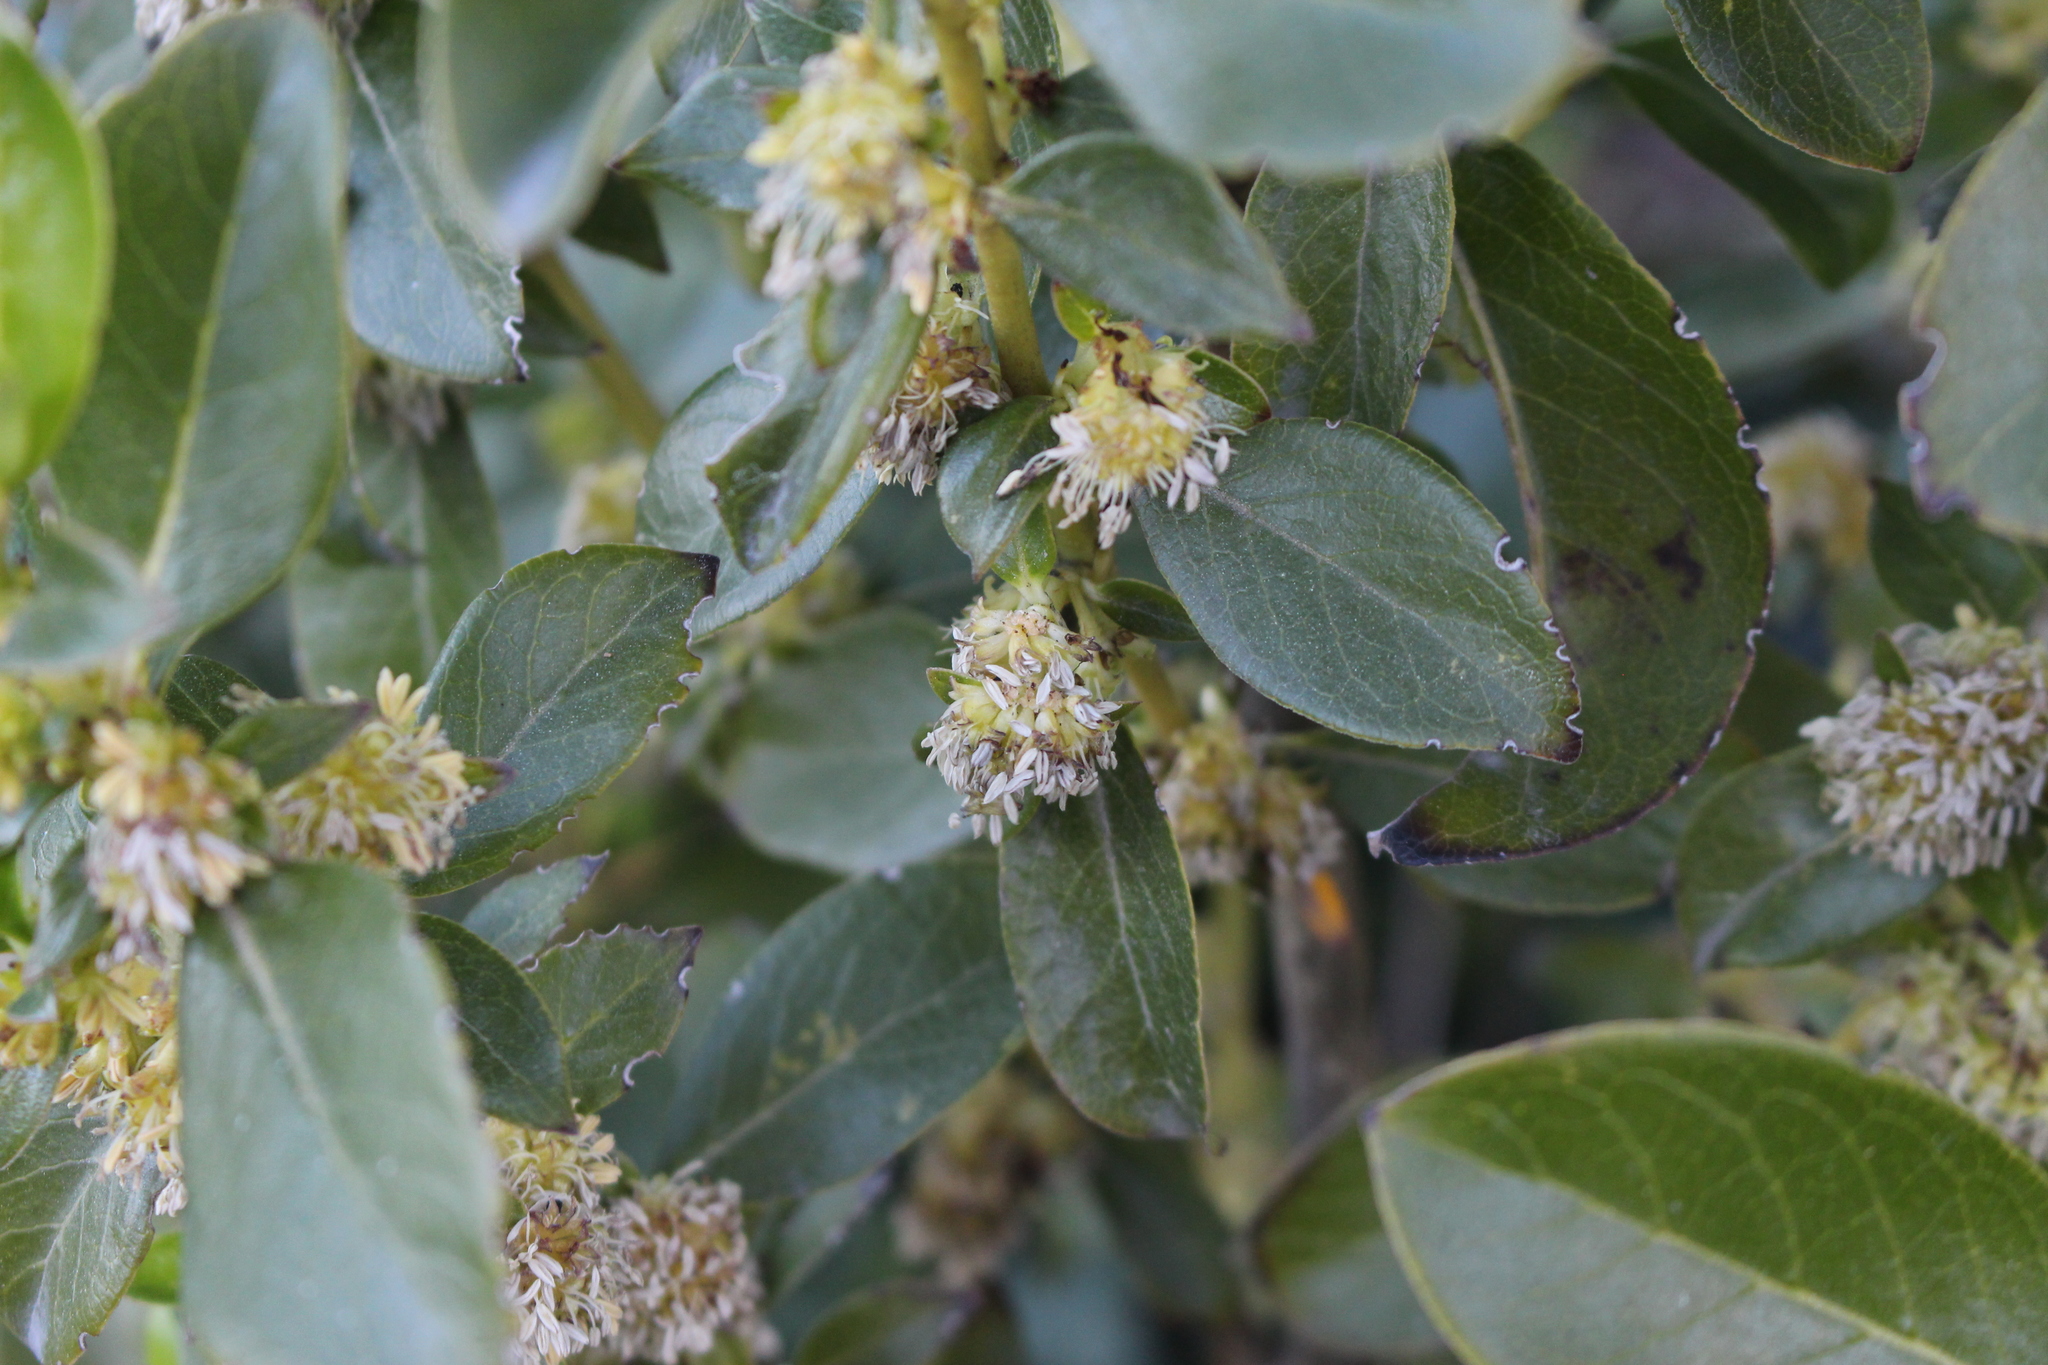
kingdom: Plantae
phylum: Tracheophyta
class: Magnoliopsida
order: Gentianales
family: Rubiaceae
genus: Coprosma
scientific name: Coprosma robusta
